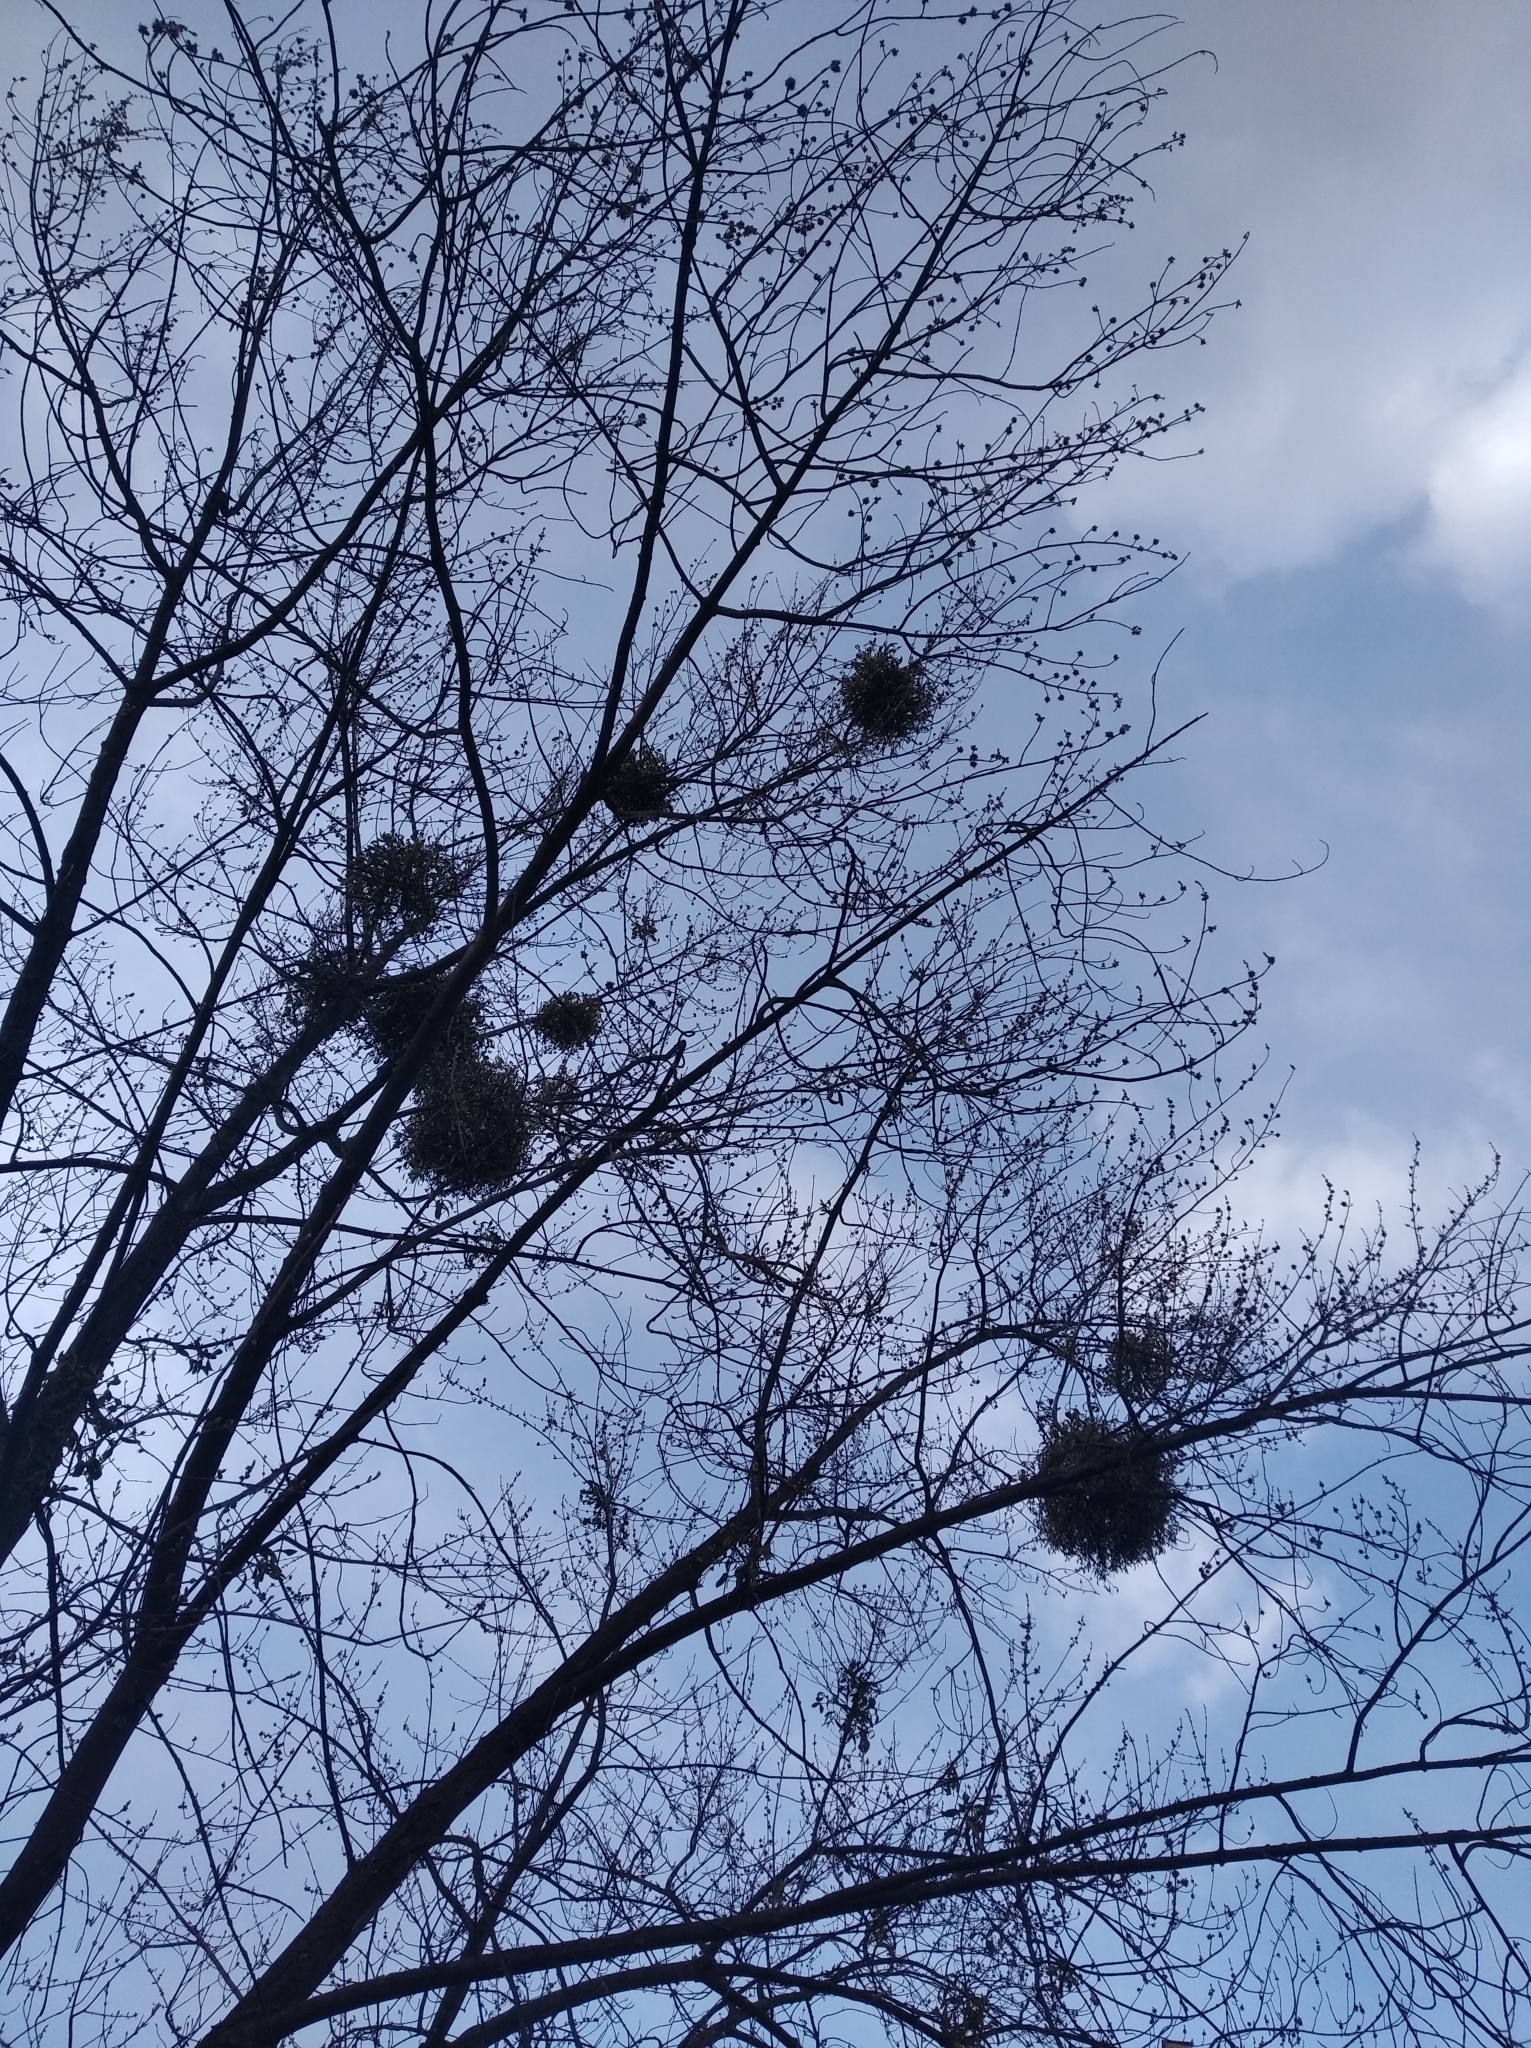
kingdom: Plantae
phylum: Tracheophyta
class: Magnoliopsida
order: Santalales
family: Viscaceae
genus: Viscum
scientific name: Viscum album
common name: Mistletoe
